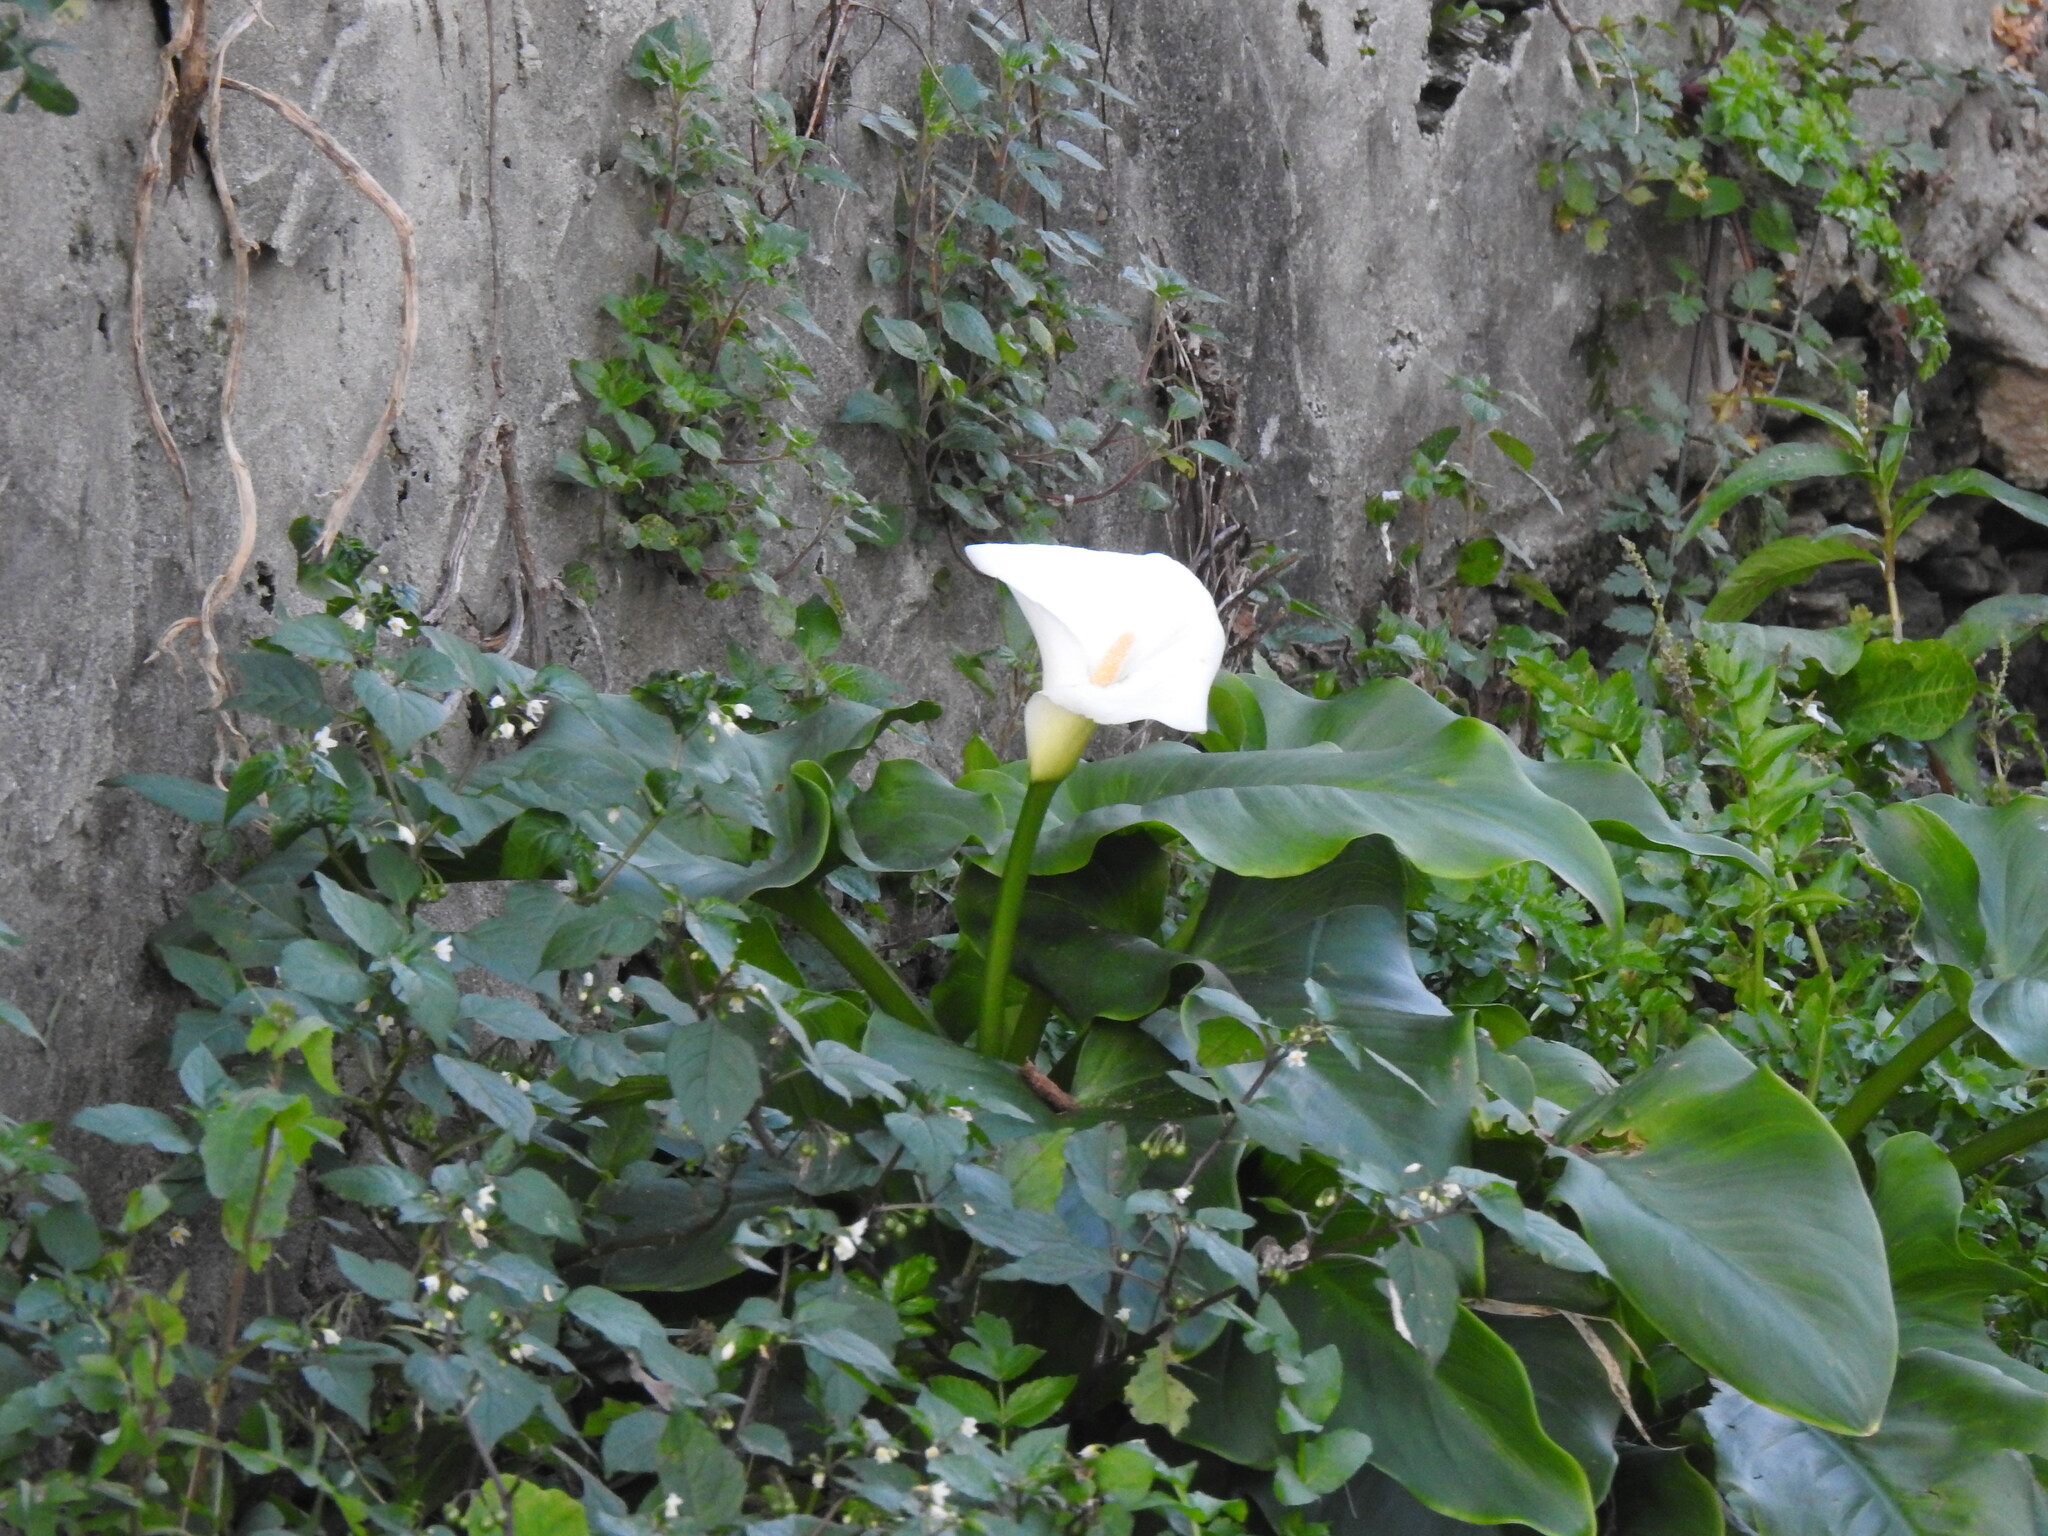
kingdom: Plantae
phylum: Tracheophyta
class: Liliopsida
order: Alismatales
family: Araceae
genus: Zantedeschia
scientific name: Zantedeschia aethiopica
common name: Altar-lily
